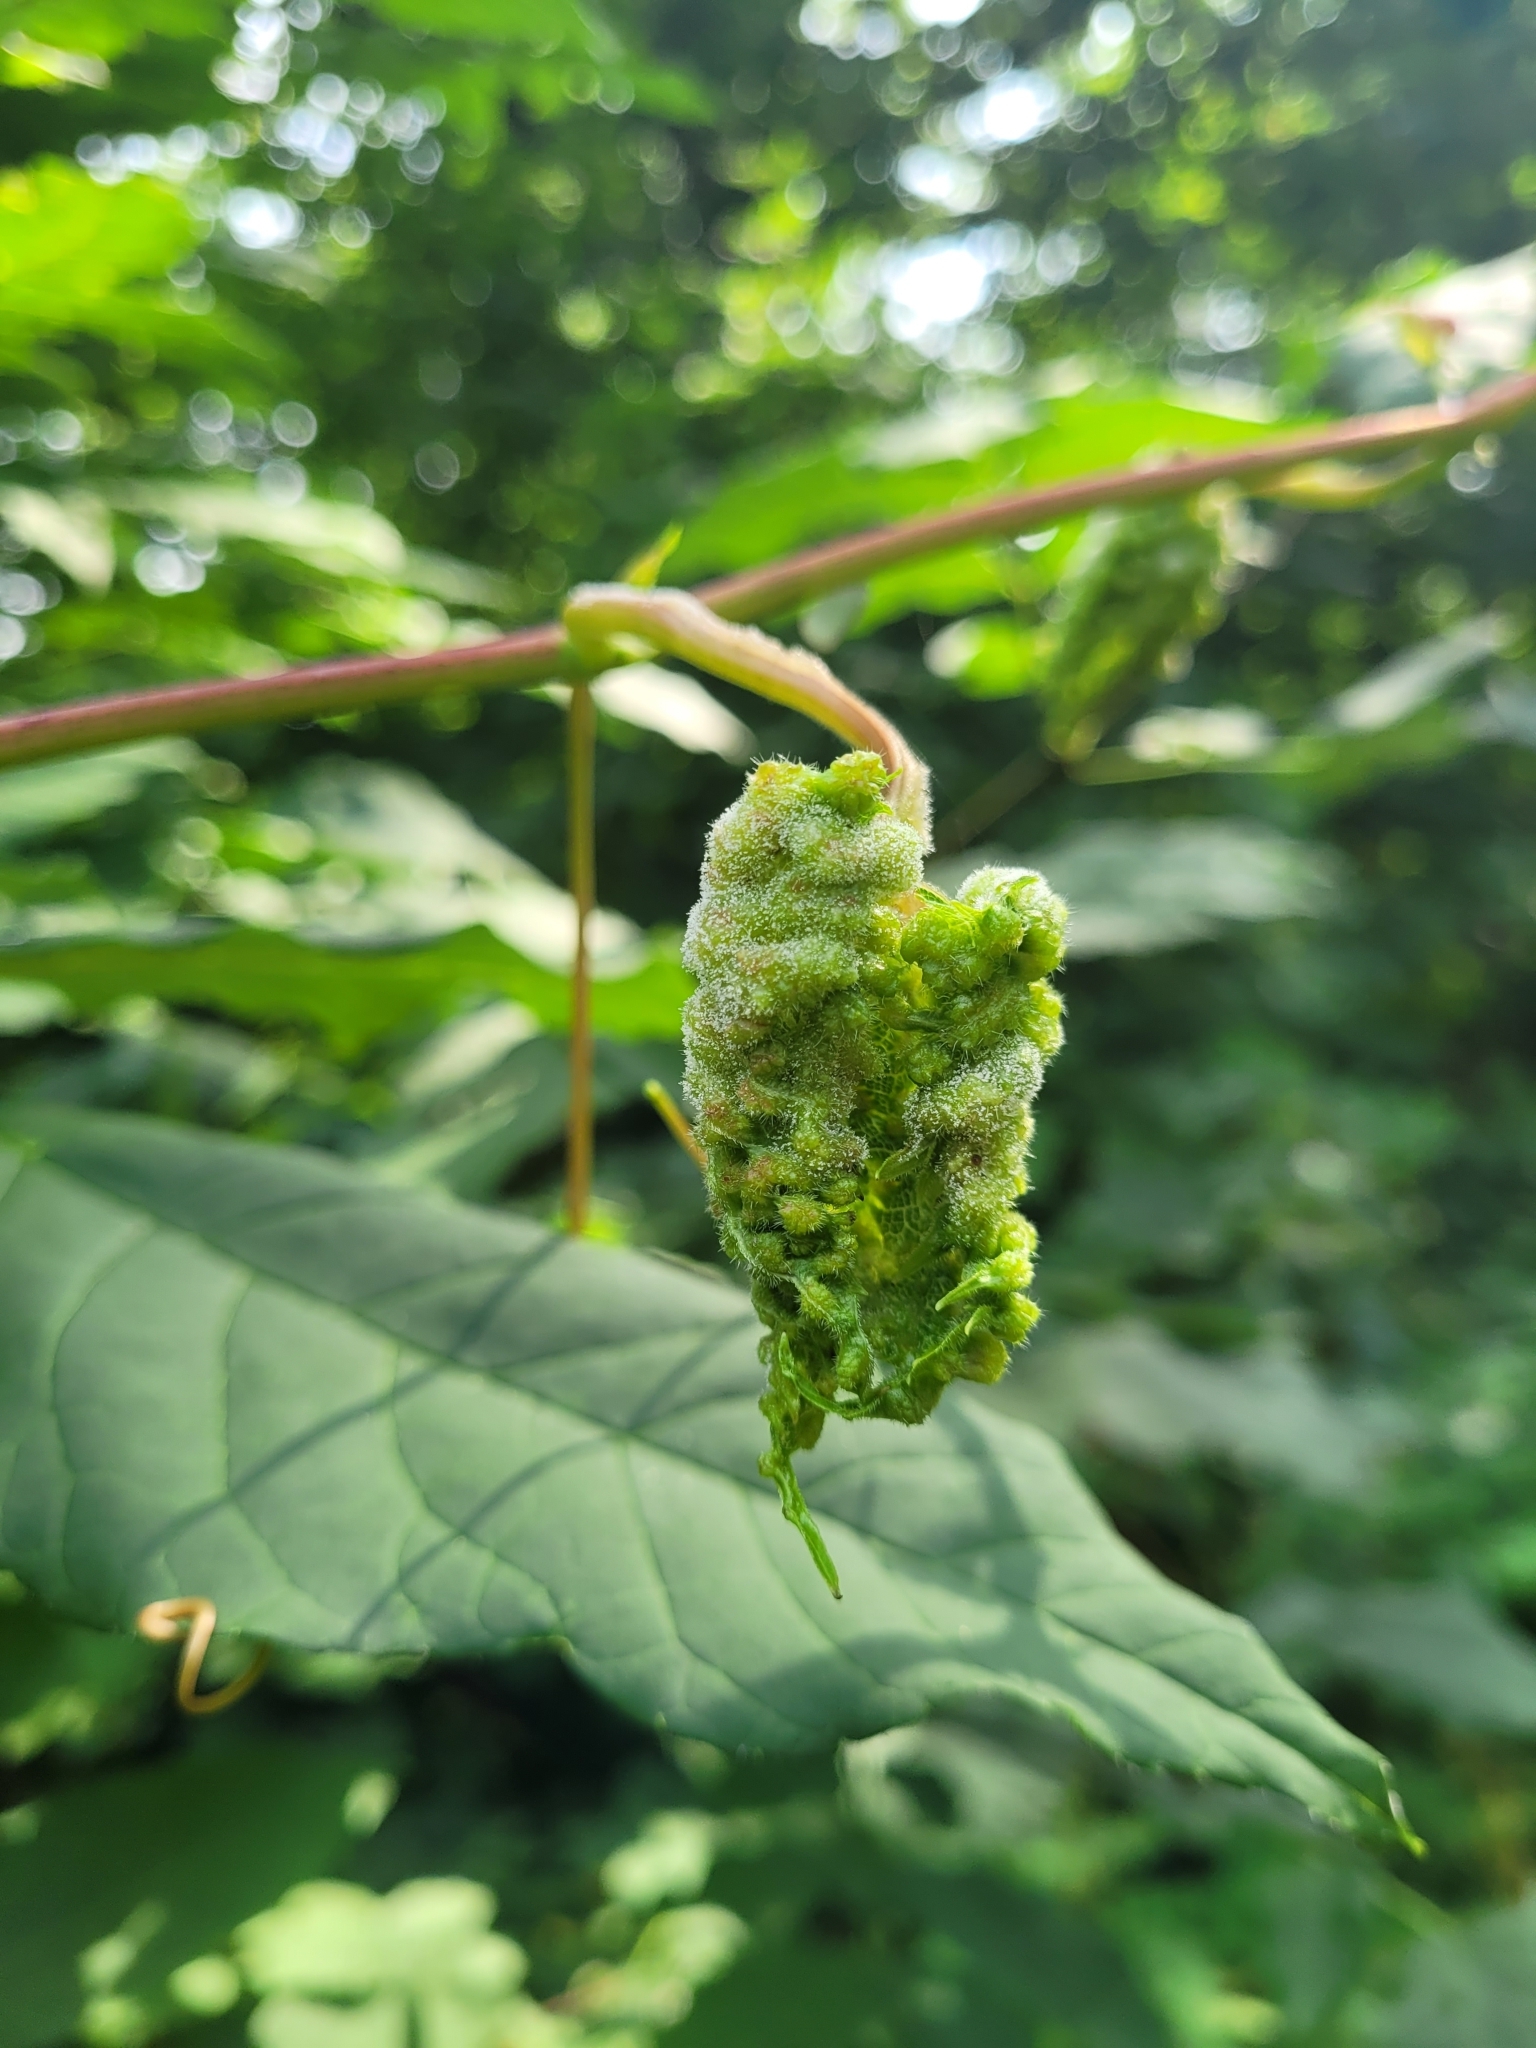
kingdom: Animalia
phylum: Arthropoda
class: Insecta
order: Hemiptera
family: Phylloxeridae
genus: Daktulosphaira
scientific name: Daktulosphaira vitifoliae
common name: Grape phylloxera
